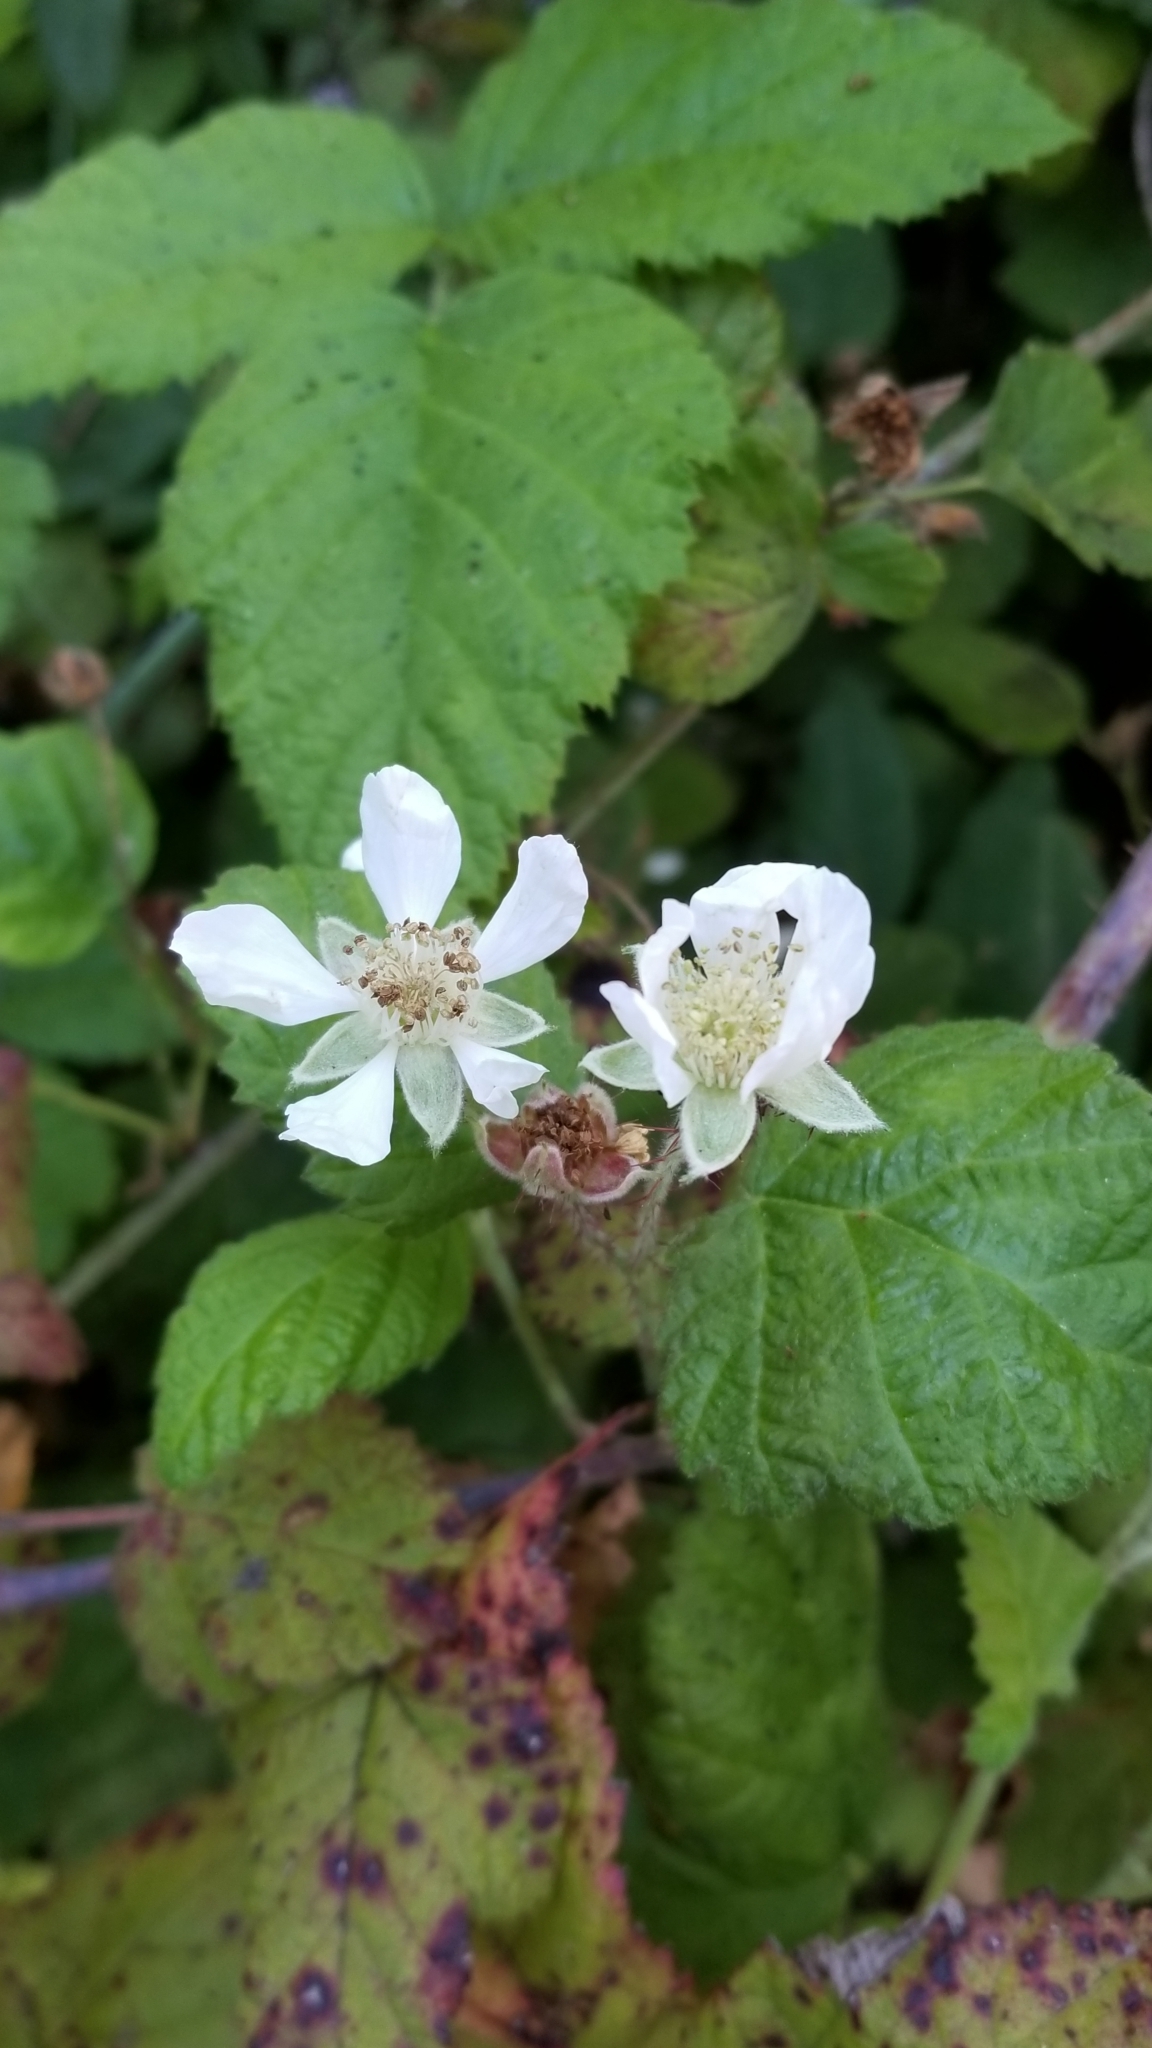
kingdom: Plantae
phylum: Tracheophyta
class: Magnoliopsida
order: Rosales
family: Rosaceae
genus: Rubus
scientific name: Rubus ursinus
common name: Pacific blackberry
